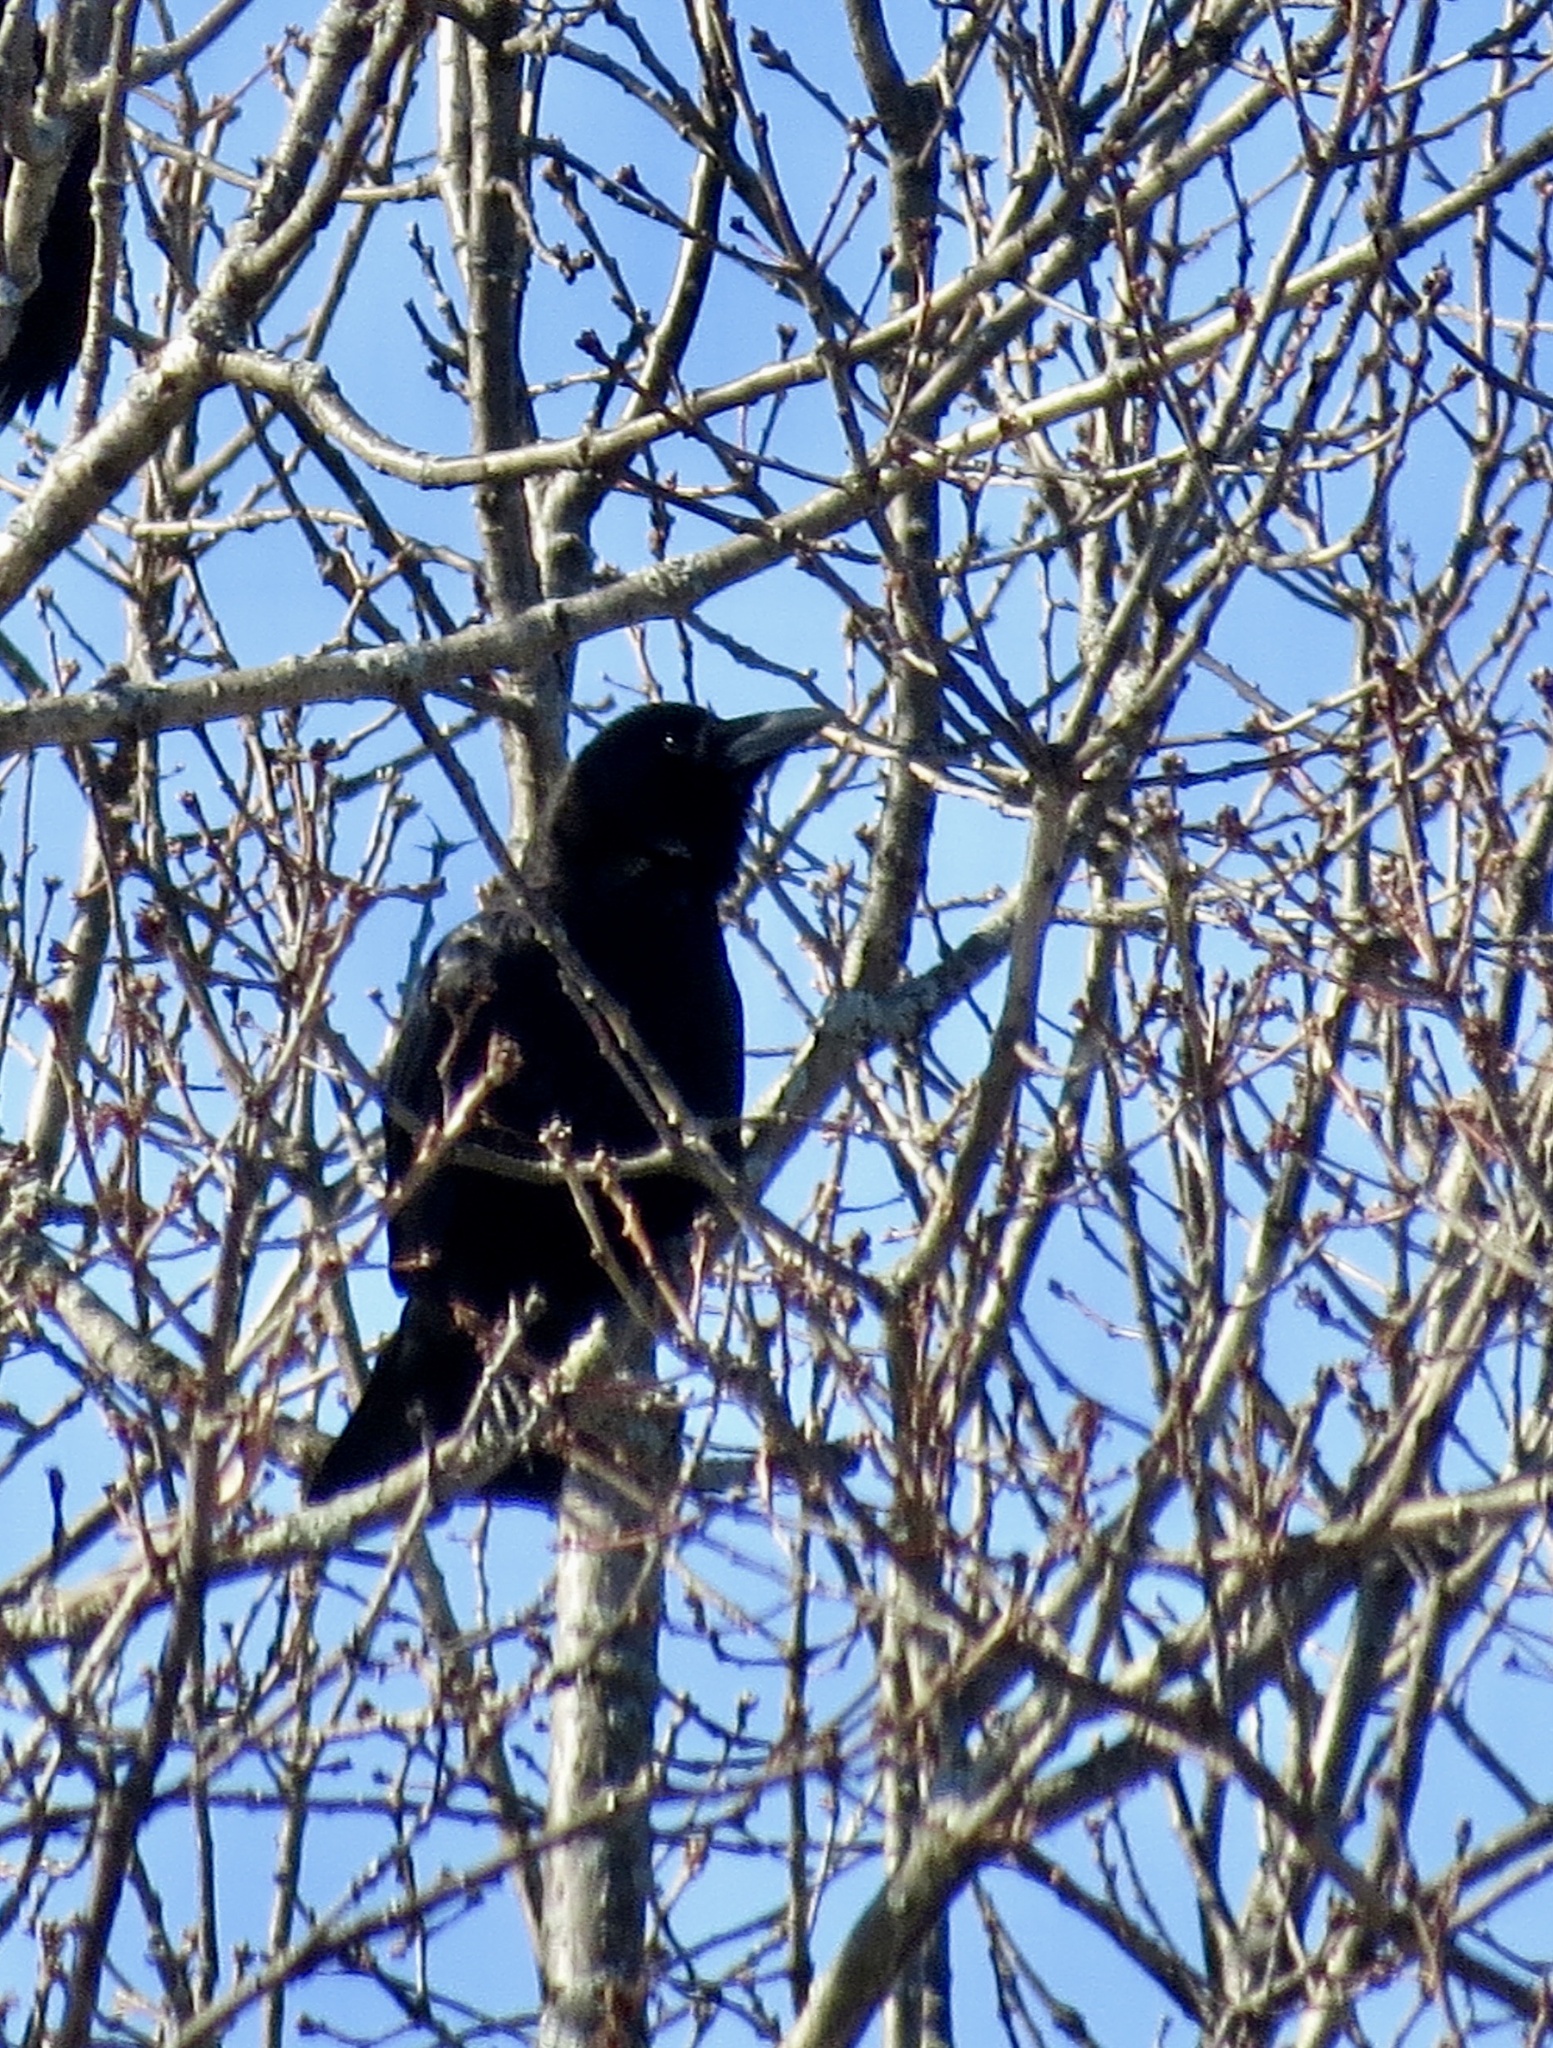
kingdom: Animalia
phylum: Chordata
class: Aves
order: Passeriformes
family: Corvidae
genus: Corvus
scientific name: Corvus brachyrhynchos
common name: American crow
